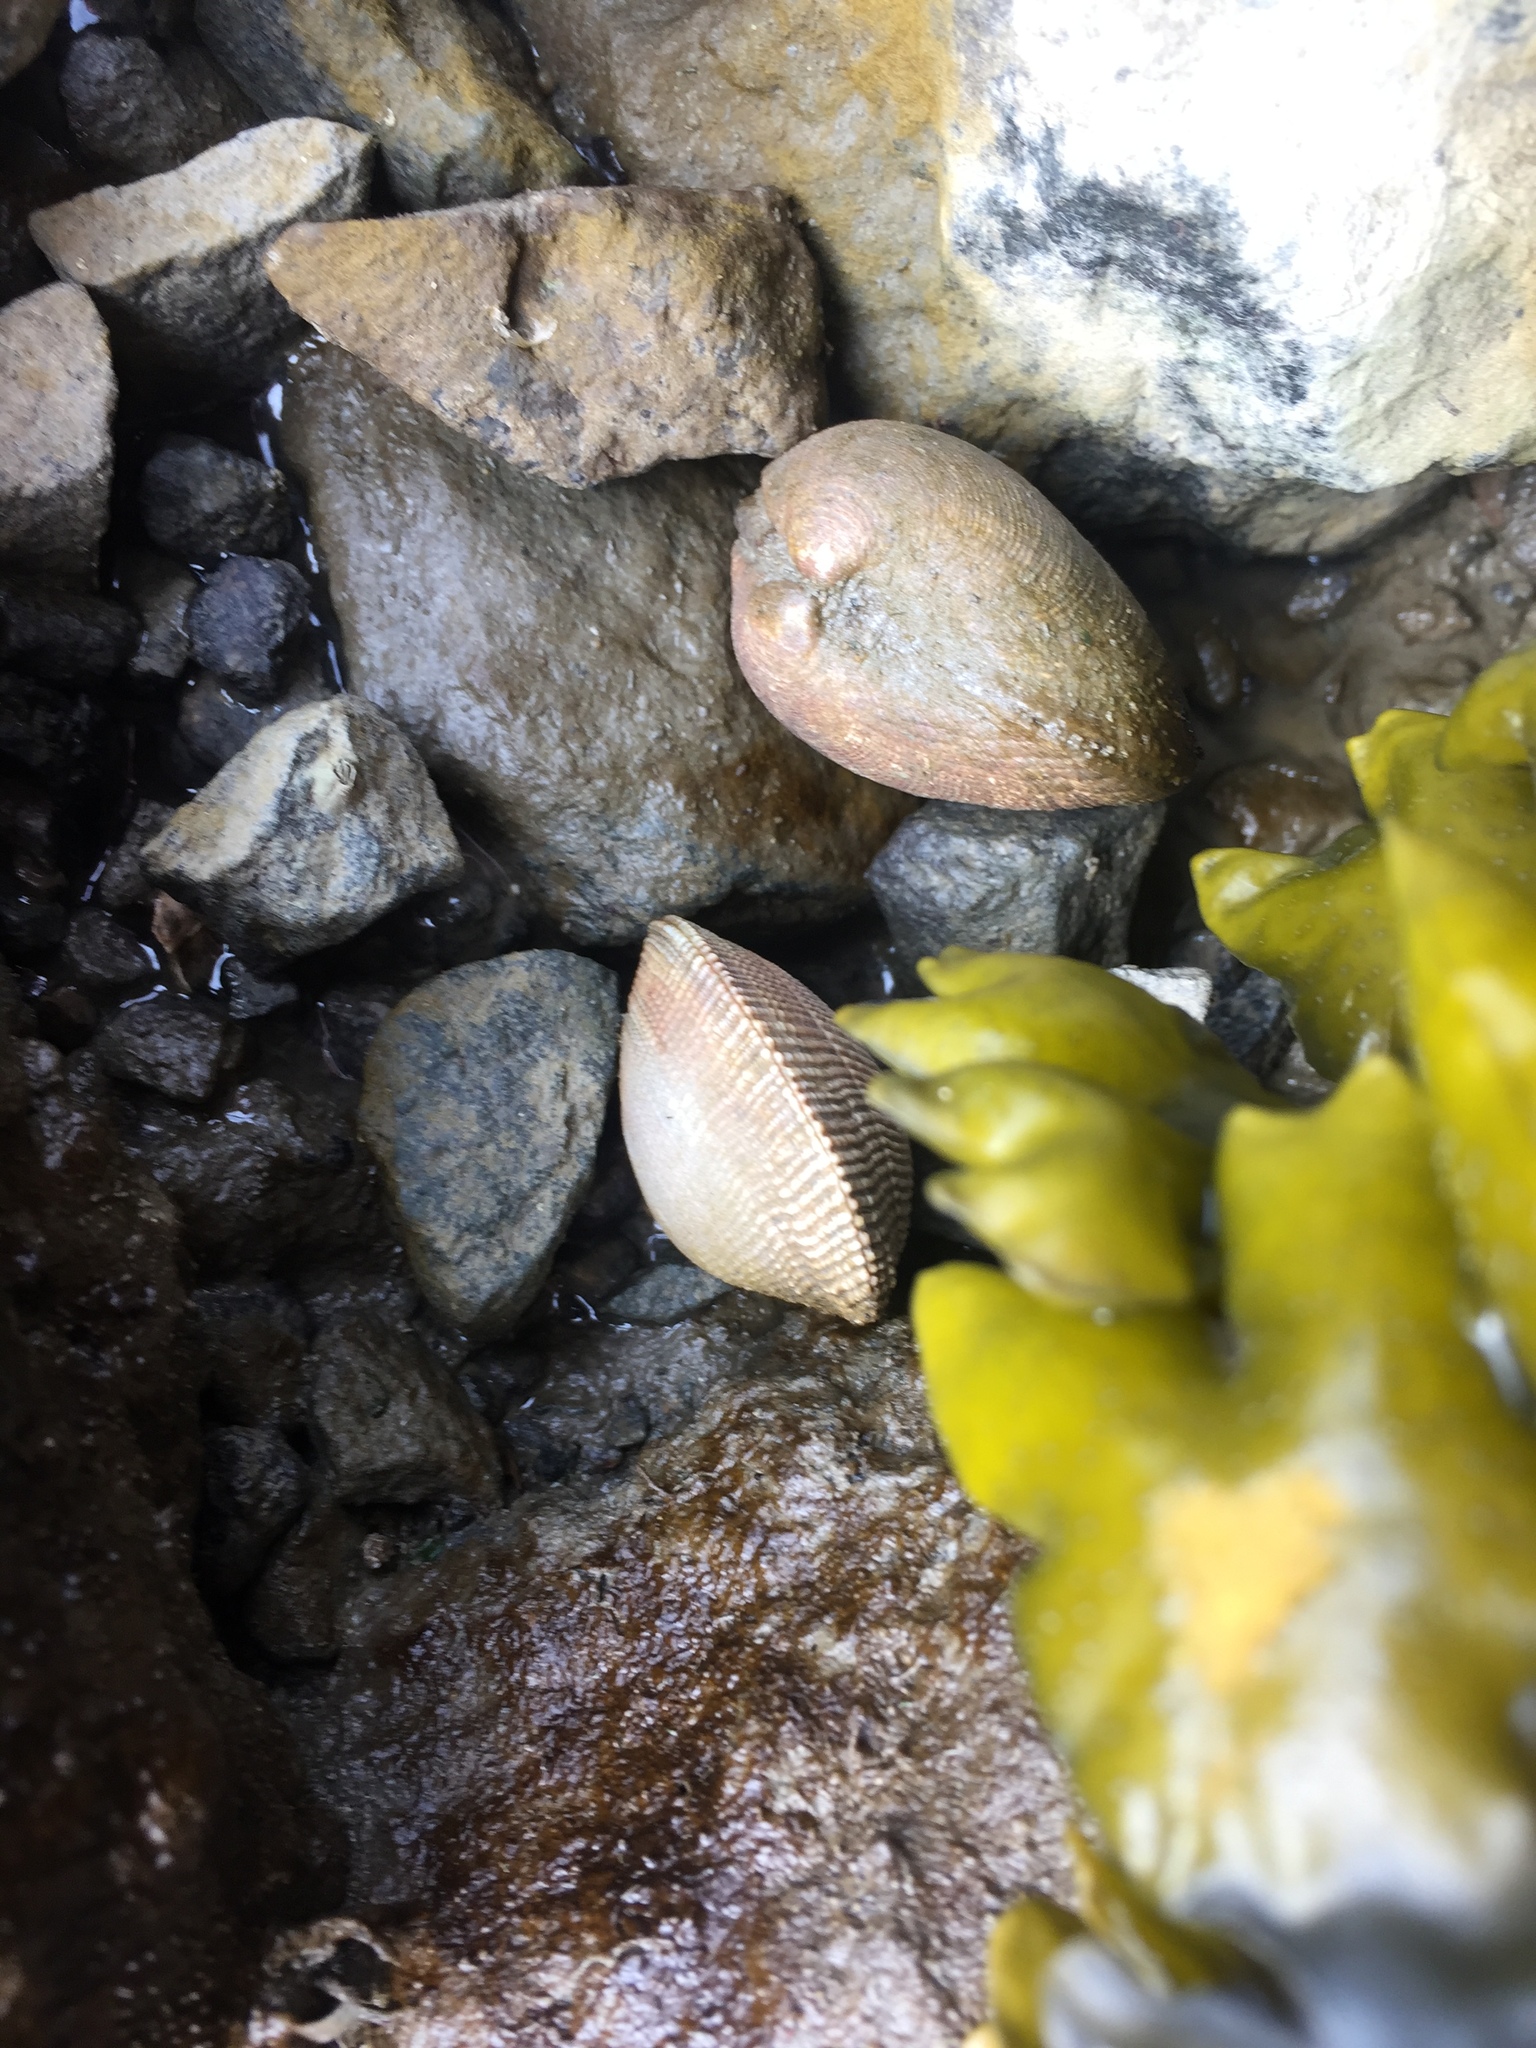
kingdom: Animalia
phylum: Mollusca
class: Bivalvia
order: Cardiida
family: Cardiidae
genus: Clinocardium
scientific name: Clinocardium nuttallii
